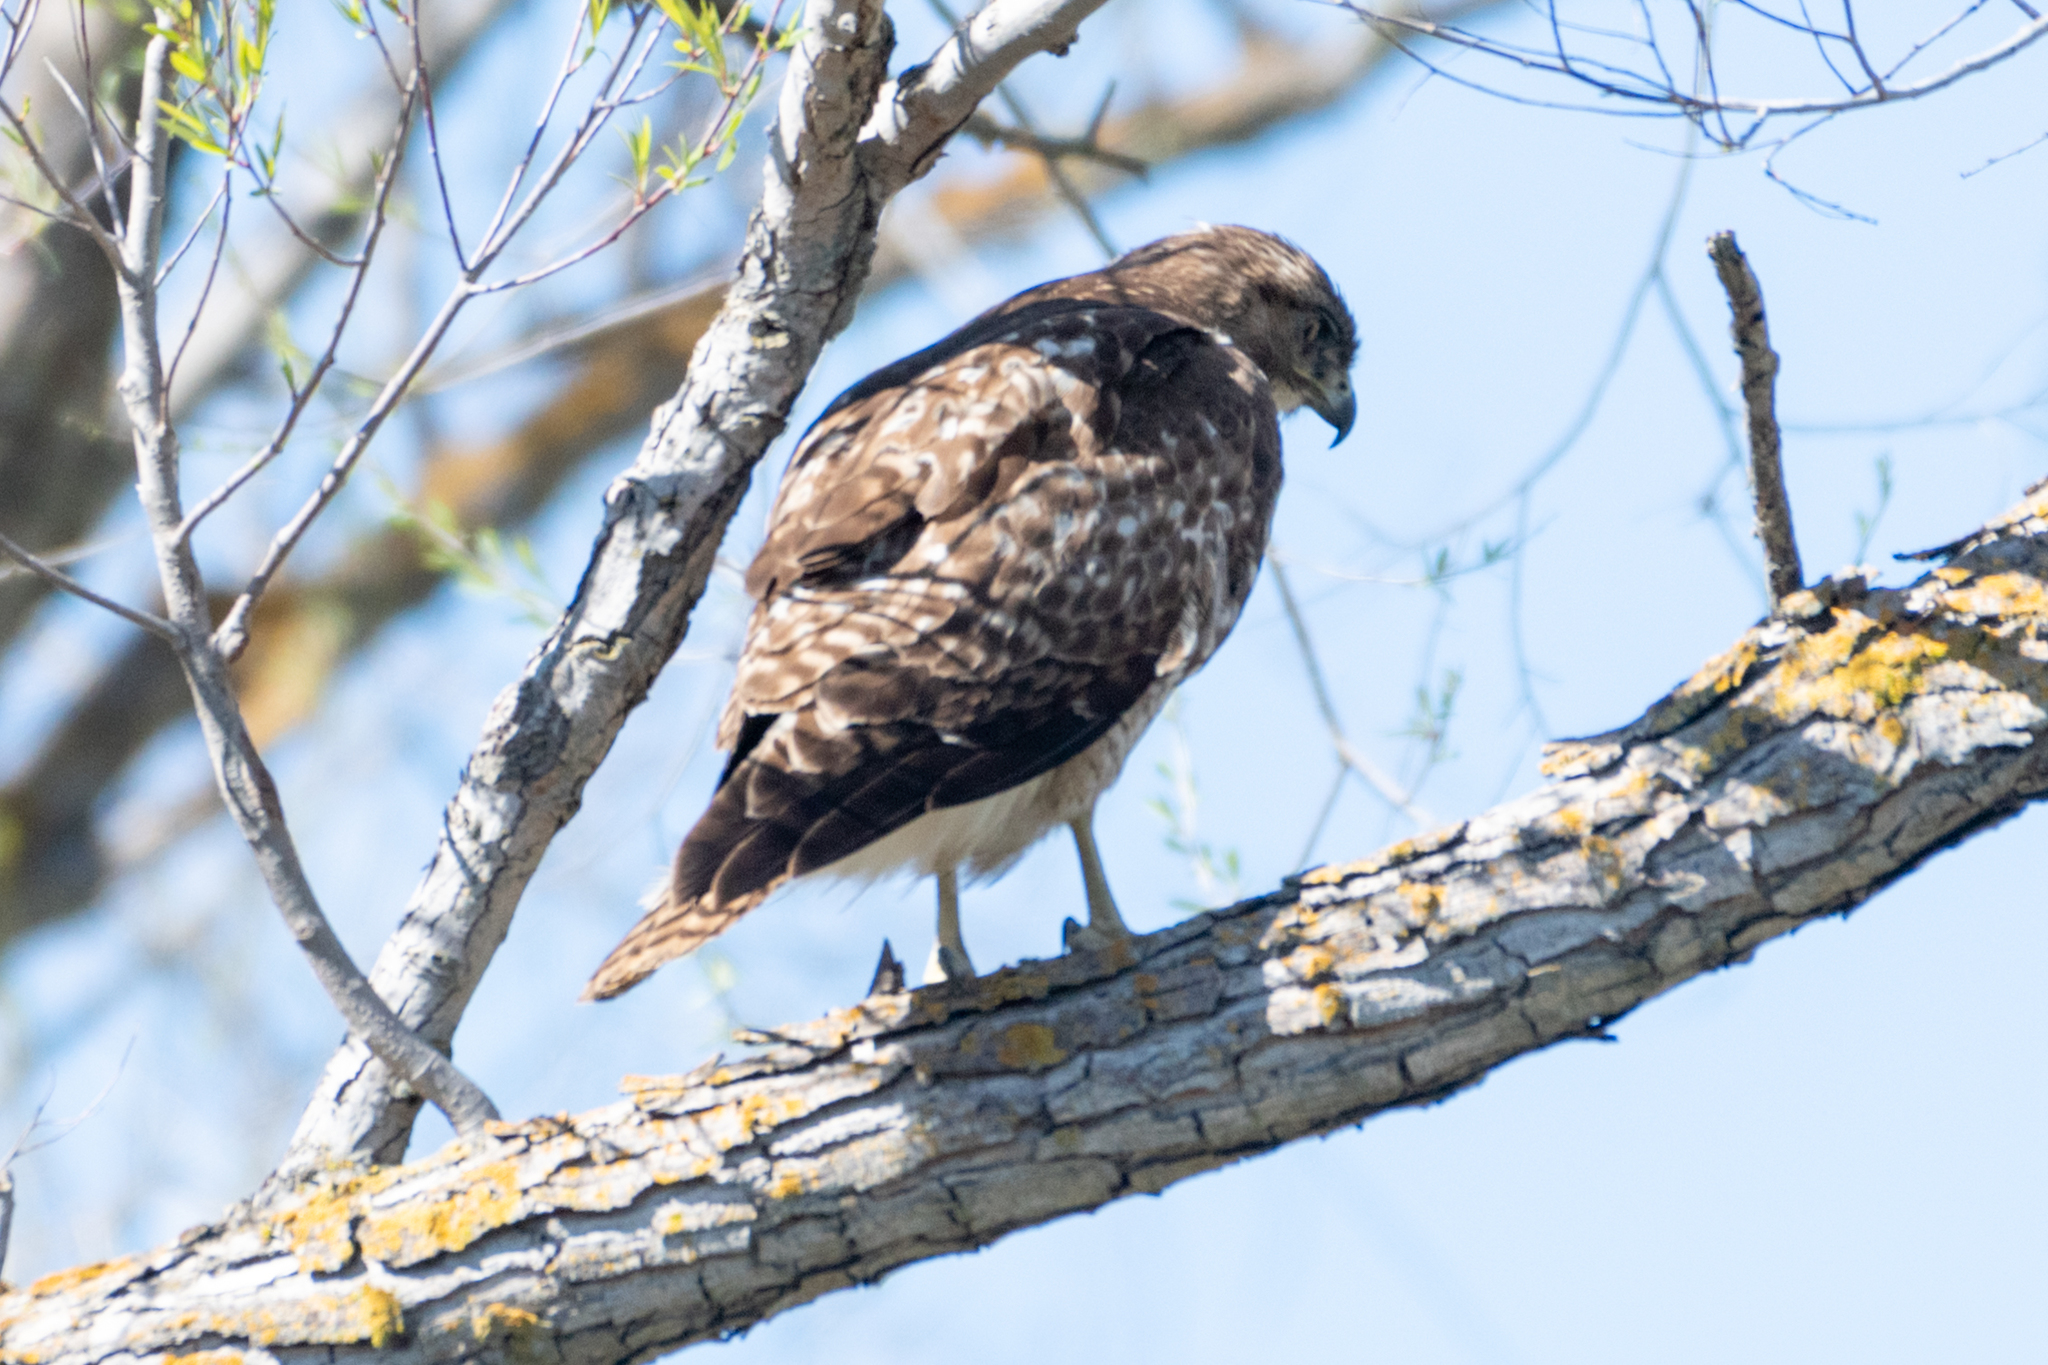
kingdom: Animalia
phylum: Chordata
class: Aves
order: Accipitriformes
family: Accipitridae
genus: Buteo
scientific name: Buteo jamaicensis
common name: Red-tailed hawk
